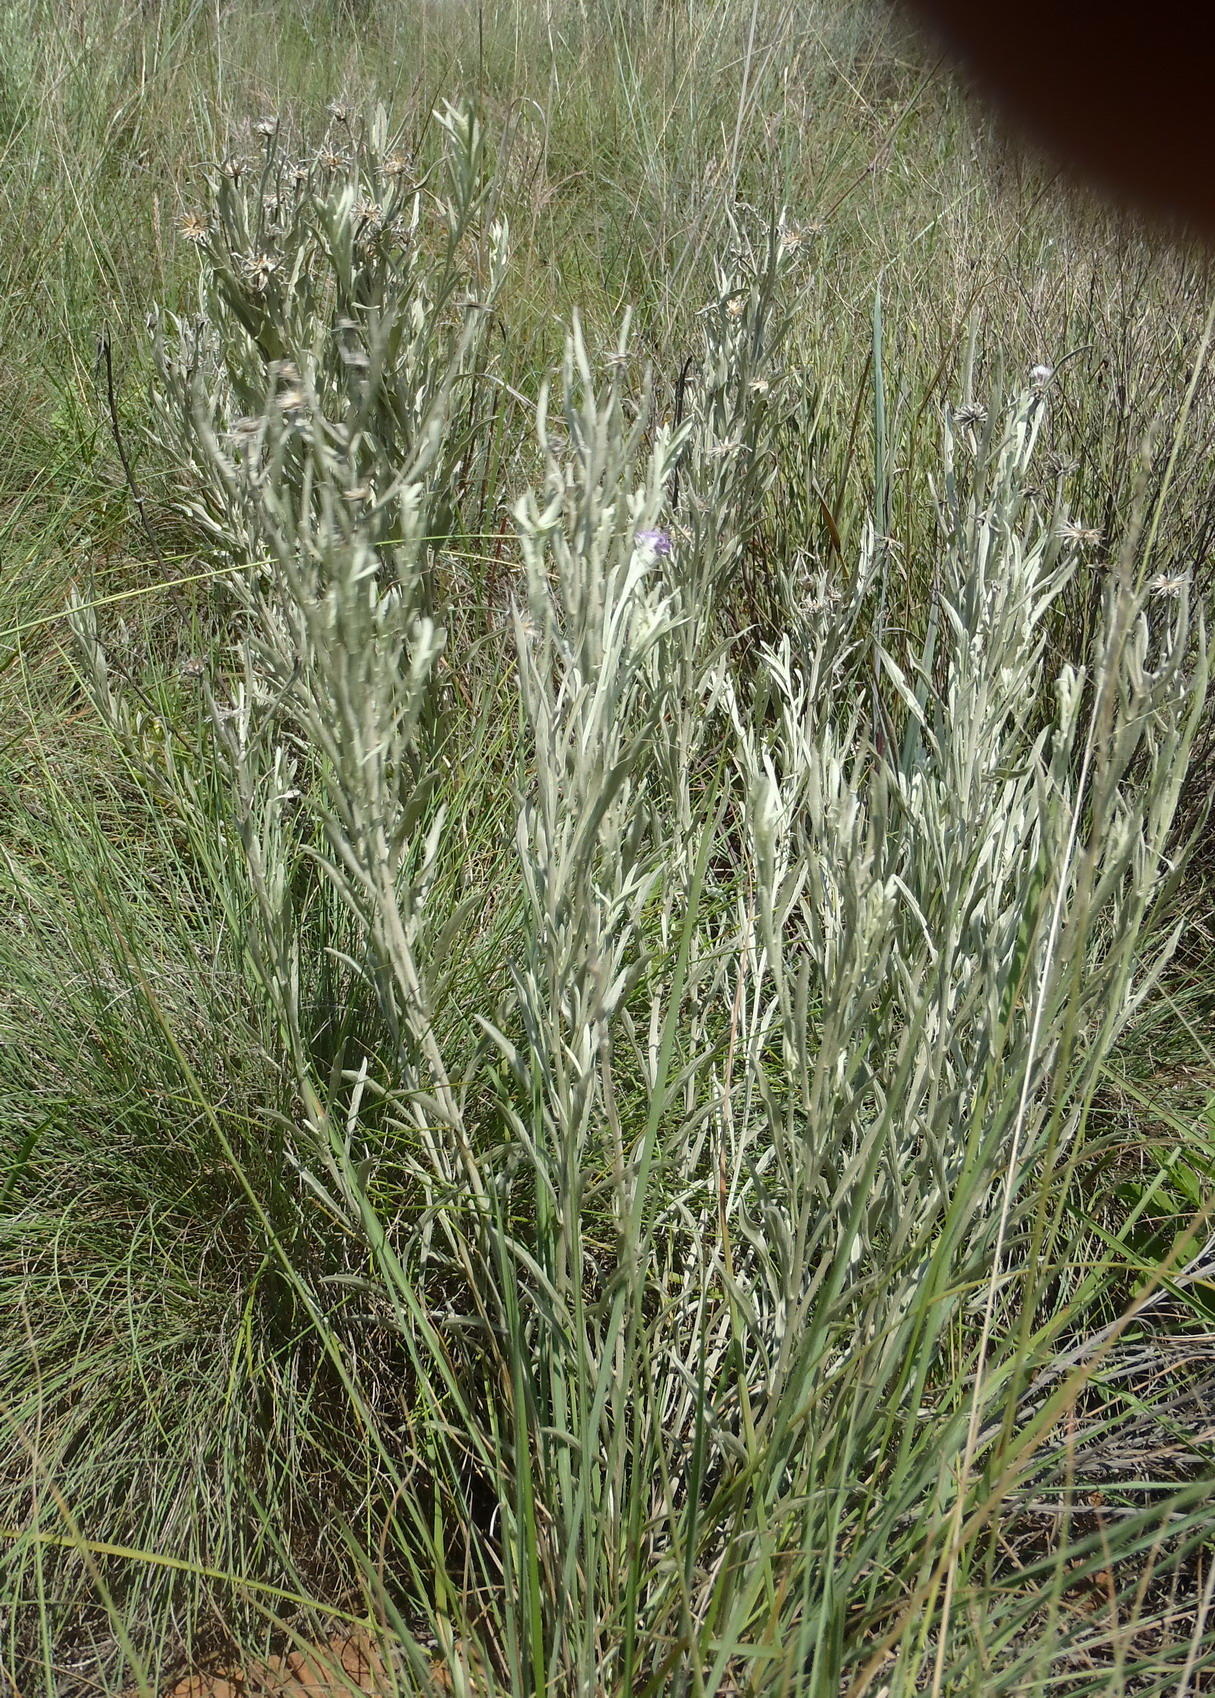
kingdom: Plantae
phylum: Tracheophyta
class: Magnoliopsida
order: Asterales
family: Asteraceae
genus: Hilliardiella
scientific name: Hilliardiella aristata
